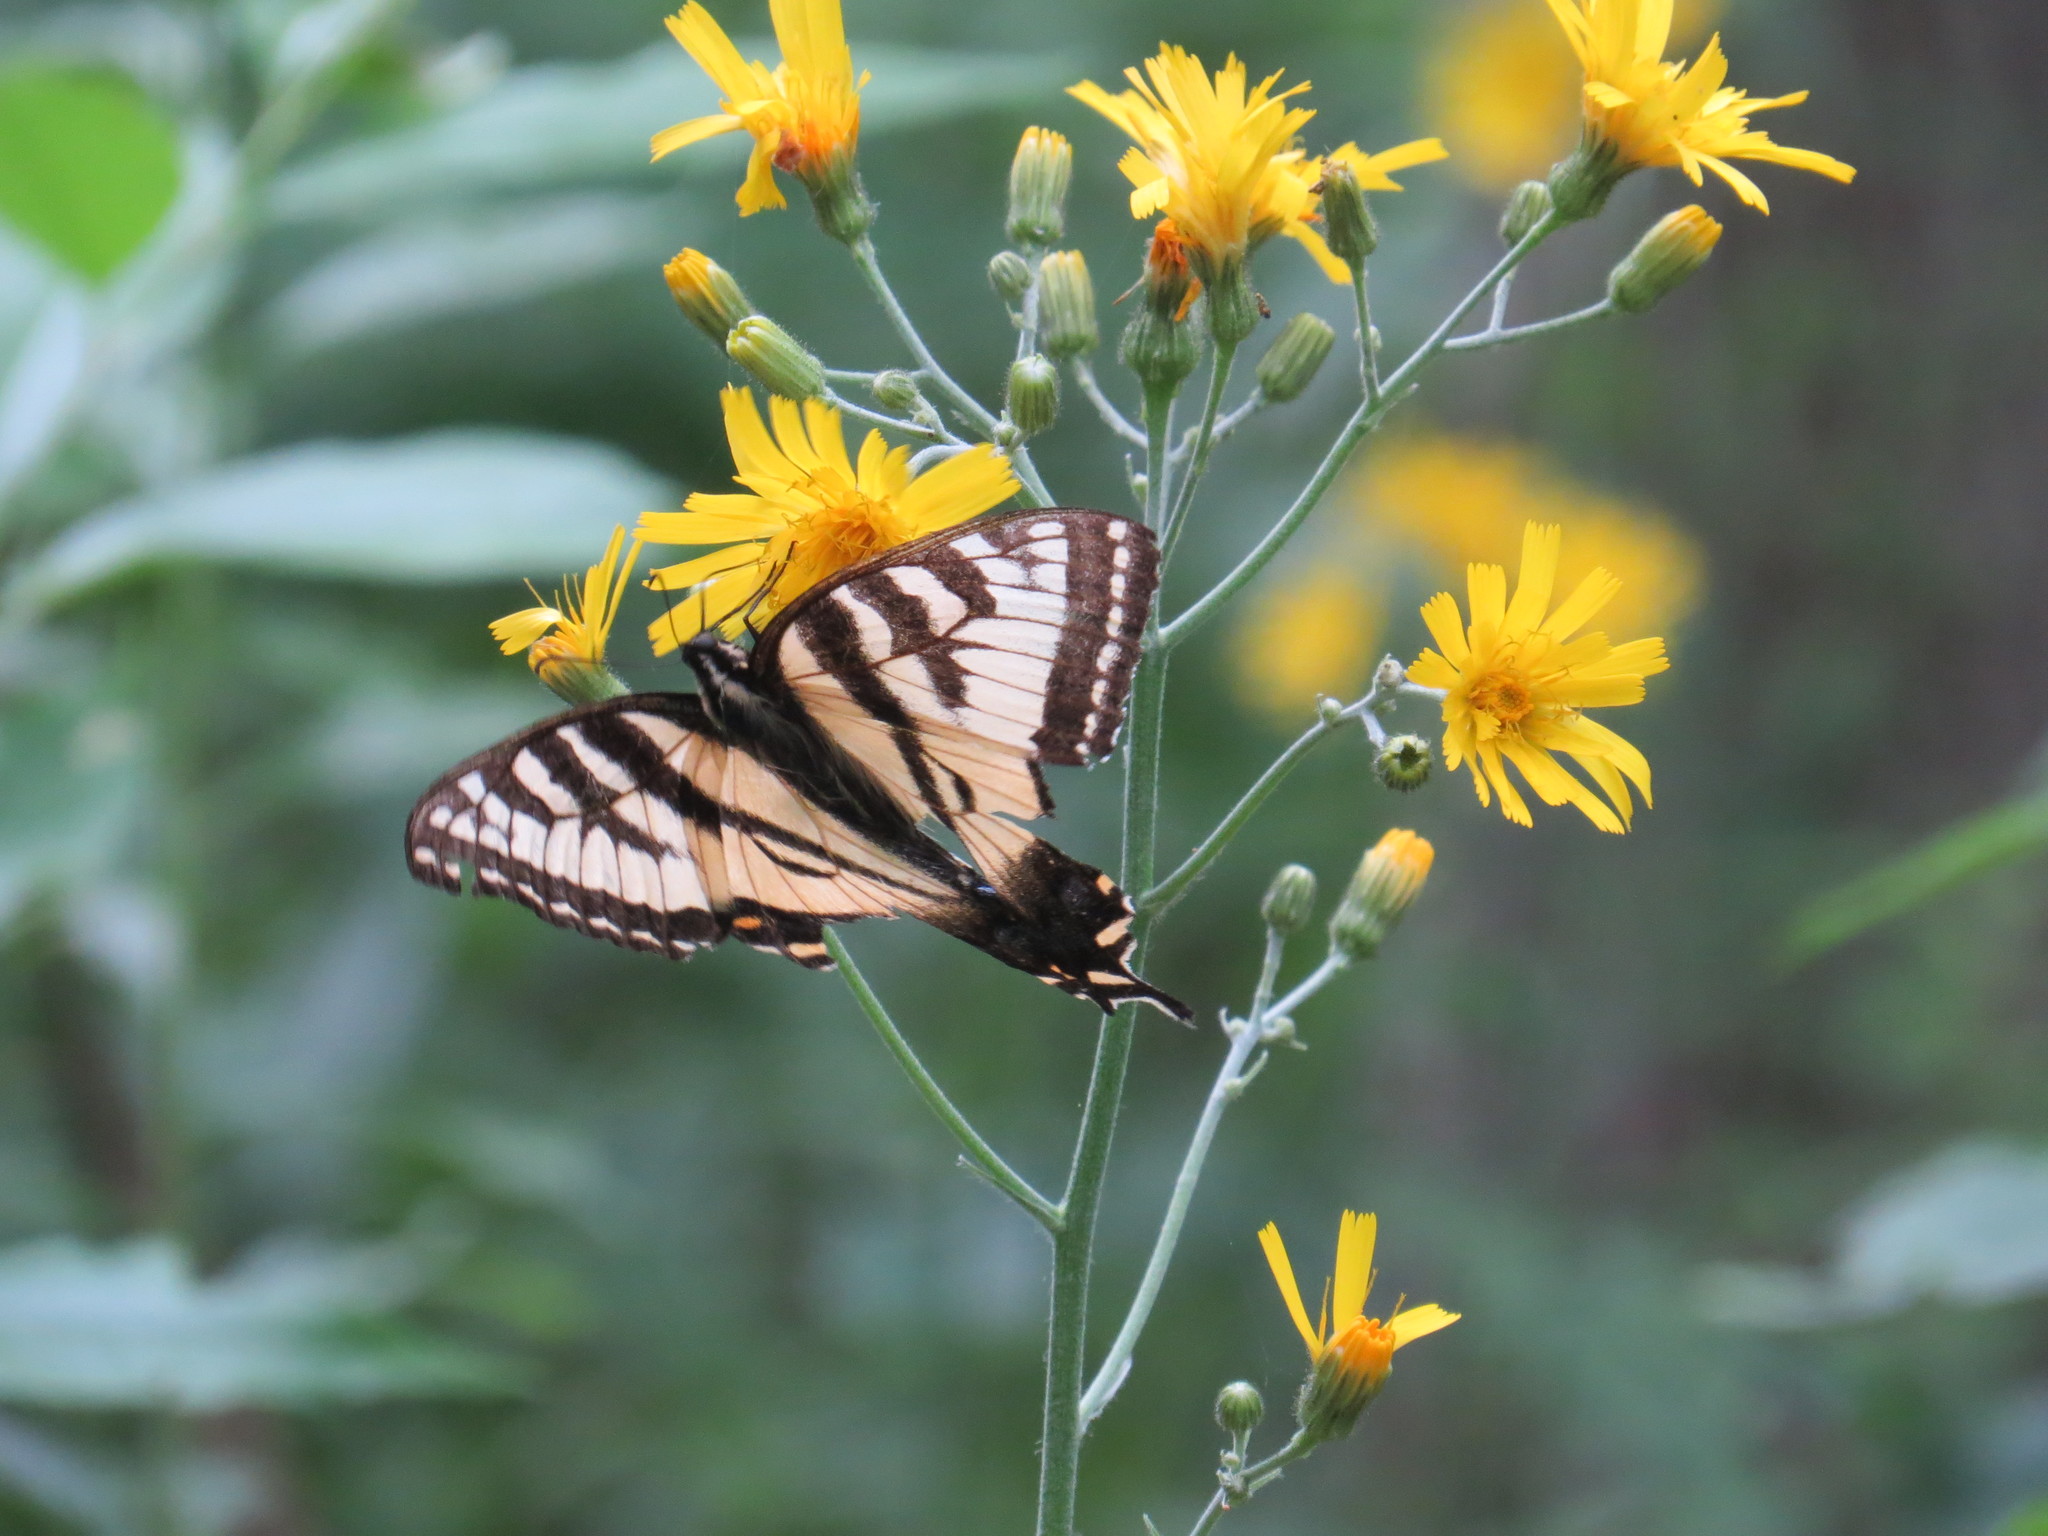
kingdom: Animalia
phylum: Arthropoda
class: Insecta
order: Lepidoptera
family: Papilionidae
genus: Papilio
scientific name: Papilio canadensis
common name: Canadian tiger swallowtail
